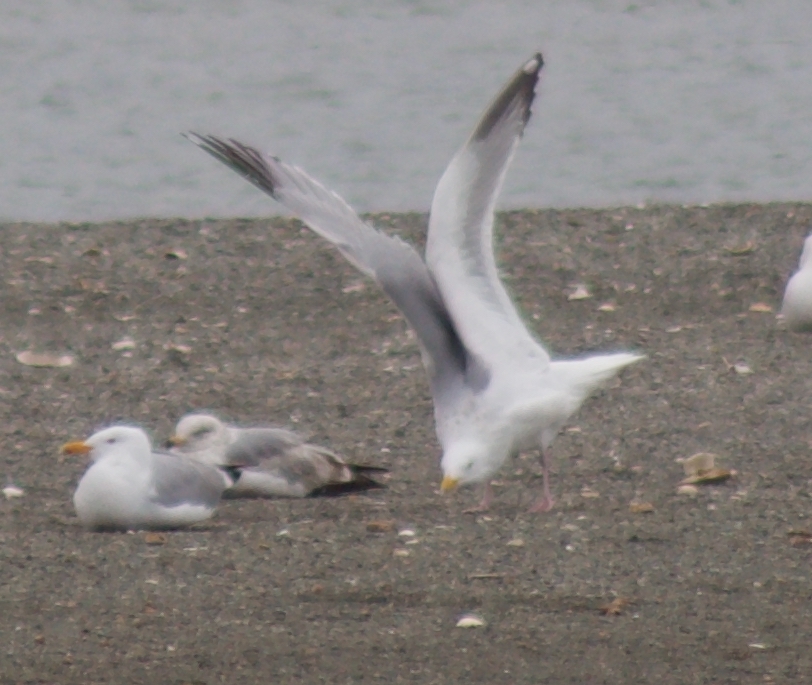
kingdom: Animalia
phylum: Chordata
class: Aves
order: Charadriiformes
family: Laridae
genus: Larus
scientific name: Larus argentatus
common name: Herring gull
